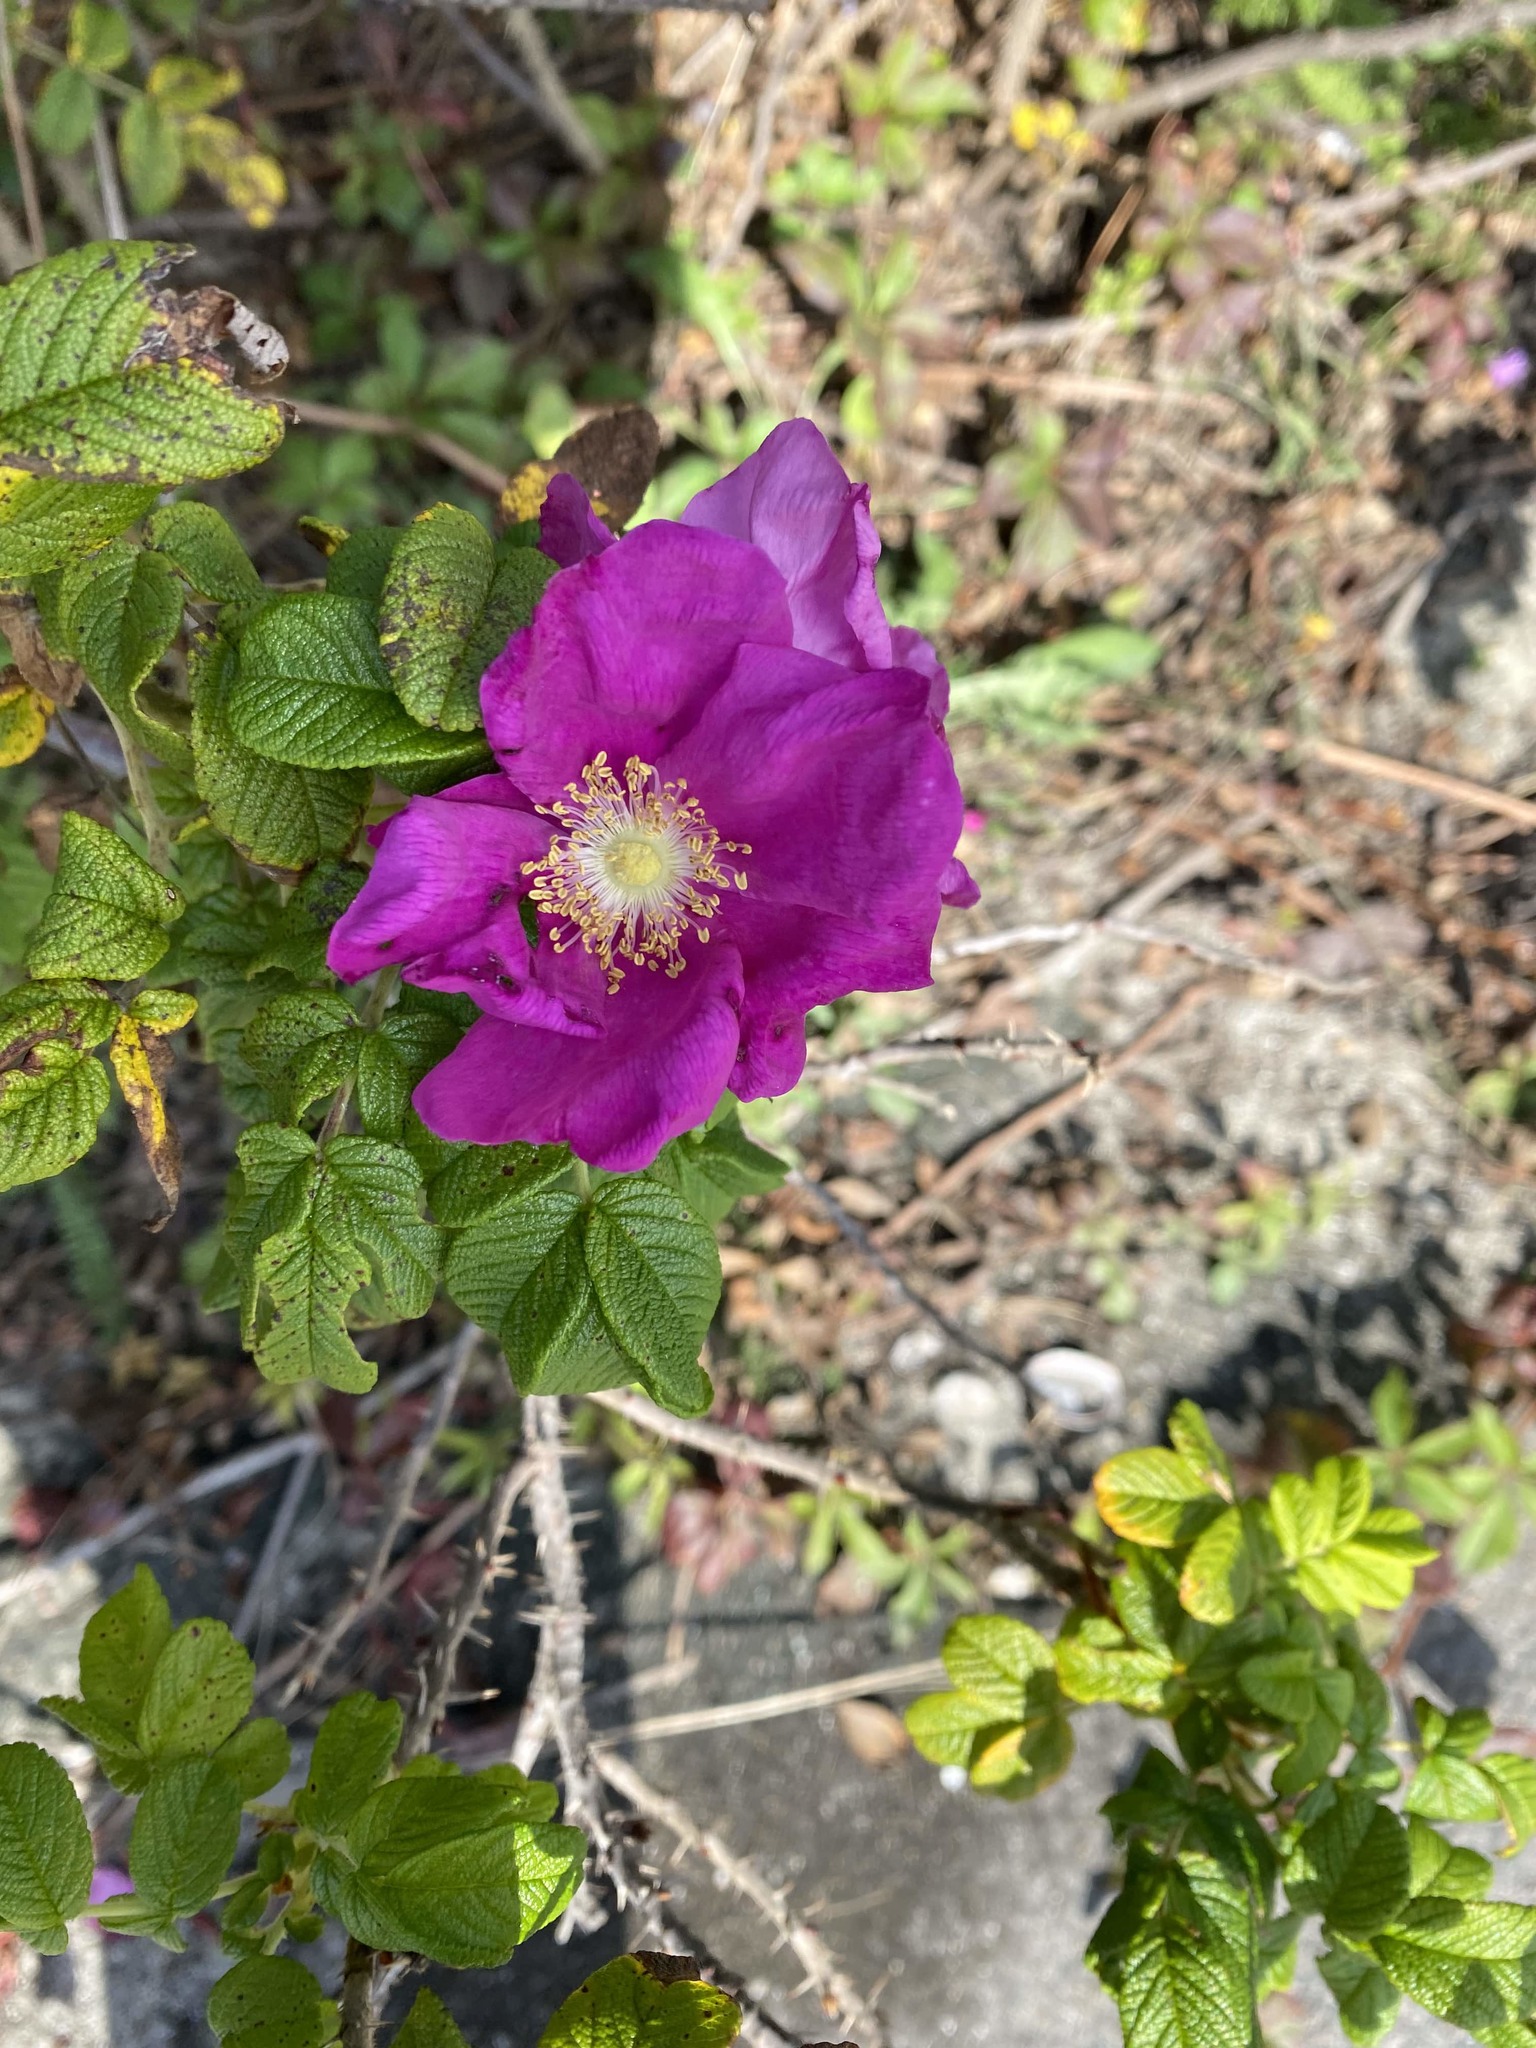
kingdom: Plantae
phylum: Tracheophyta
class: Magnoliopsida
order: Rosales
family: Rosaceae
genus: Rosa
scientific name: Rosa rugosa
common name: Japanese rose
